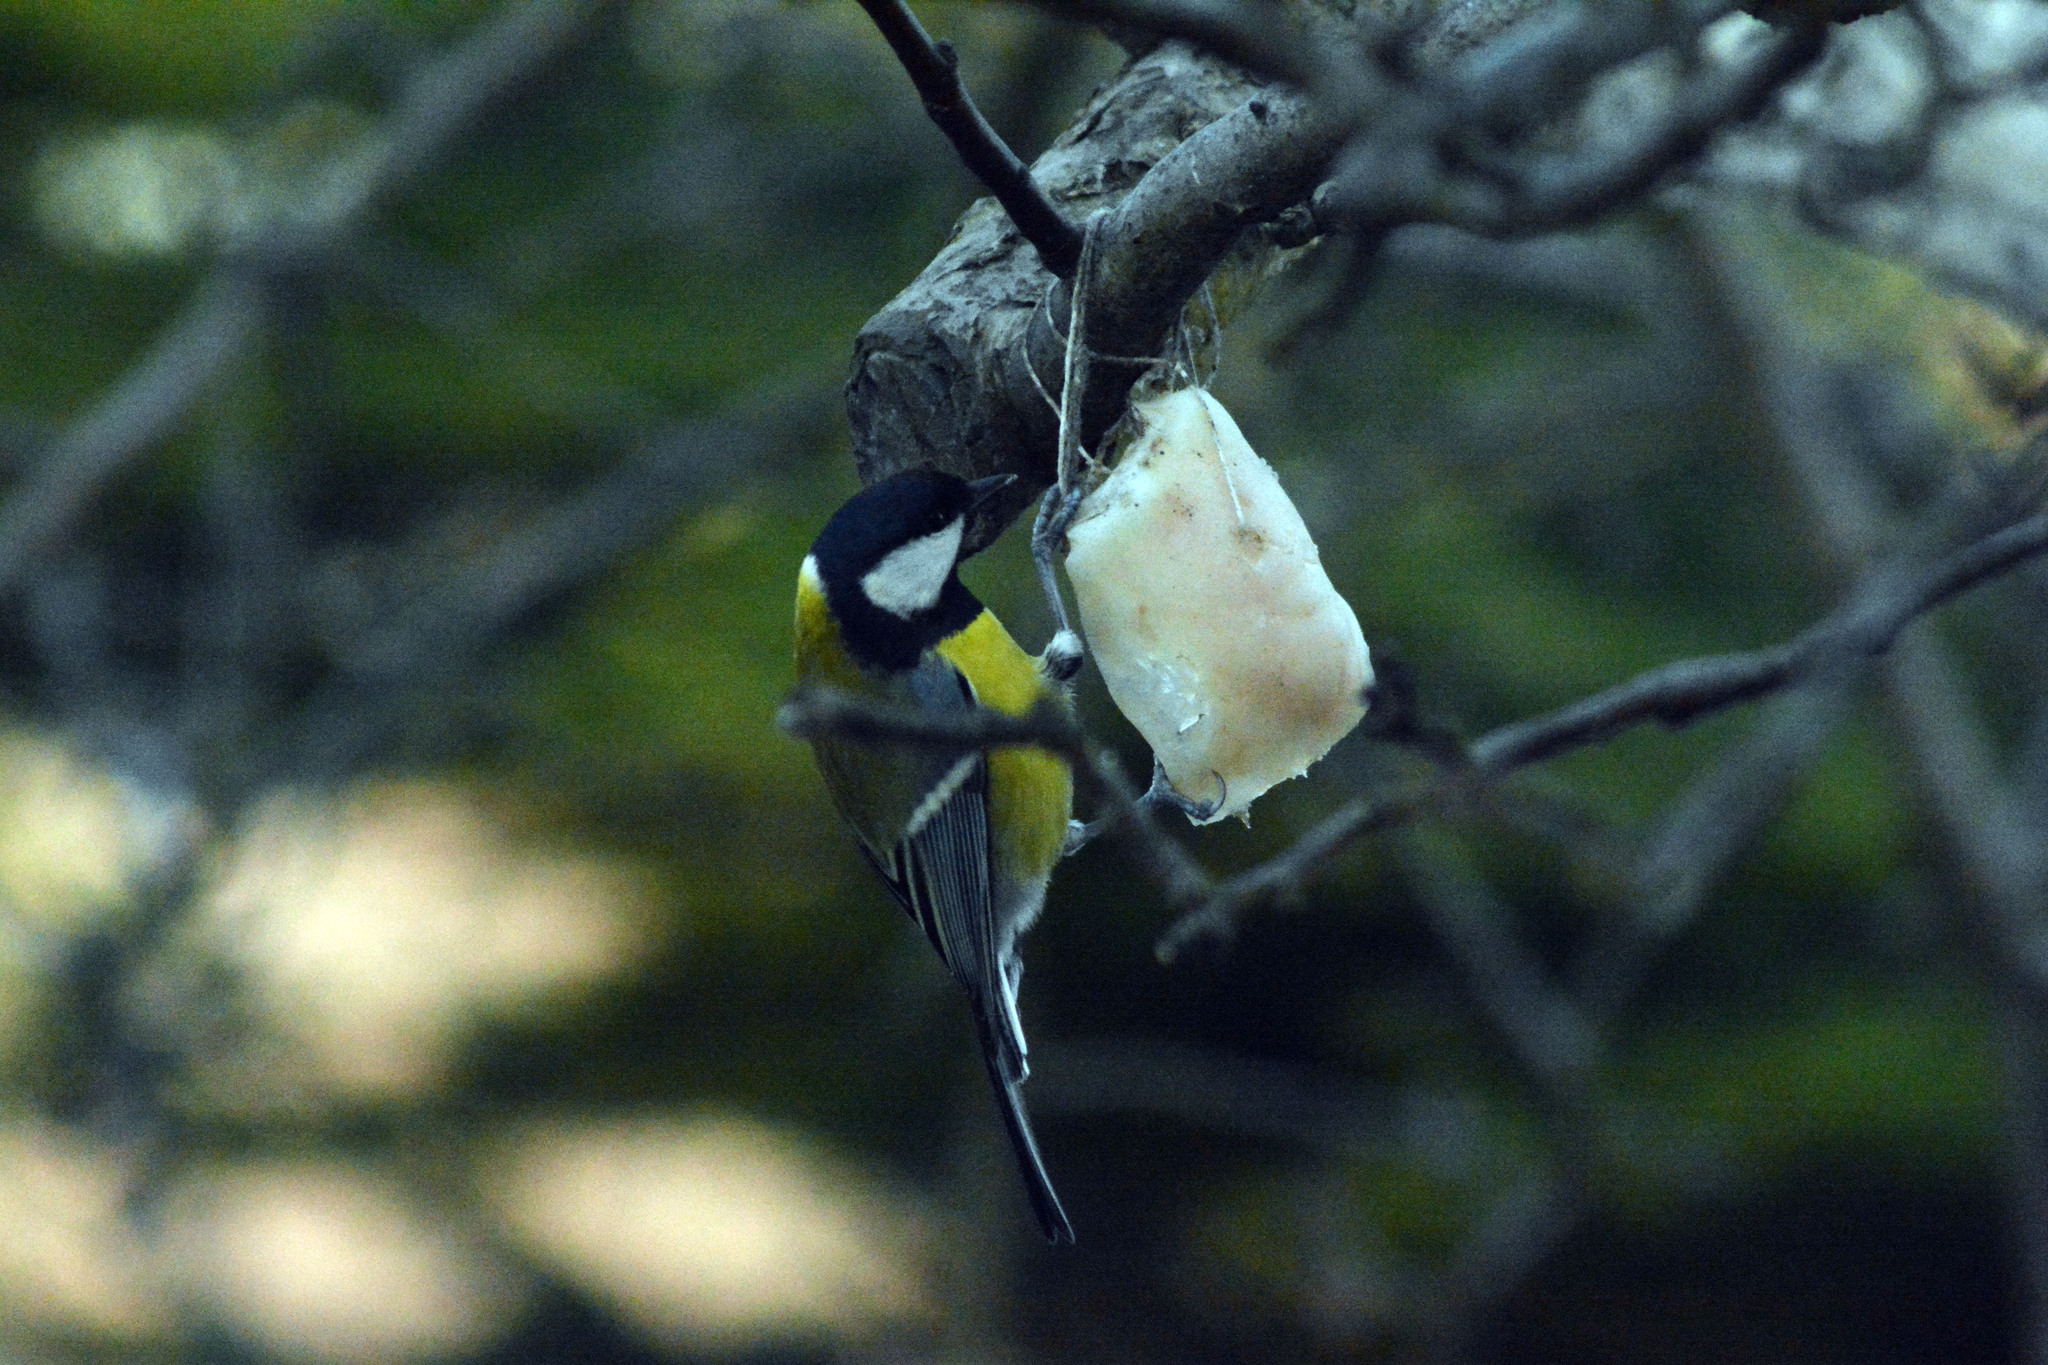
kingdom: Animalia
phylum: Chordata
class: Aves
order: Passeriformes
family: Paridae
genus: Parus
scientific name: Parus major
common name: Great tit
